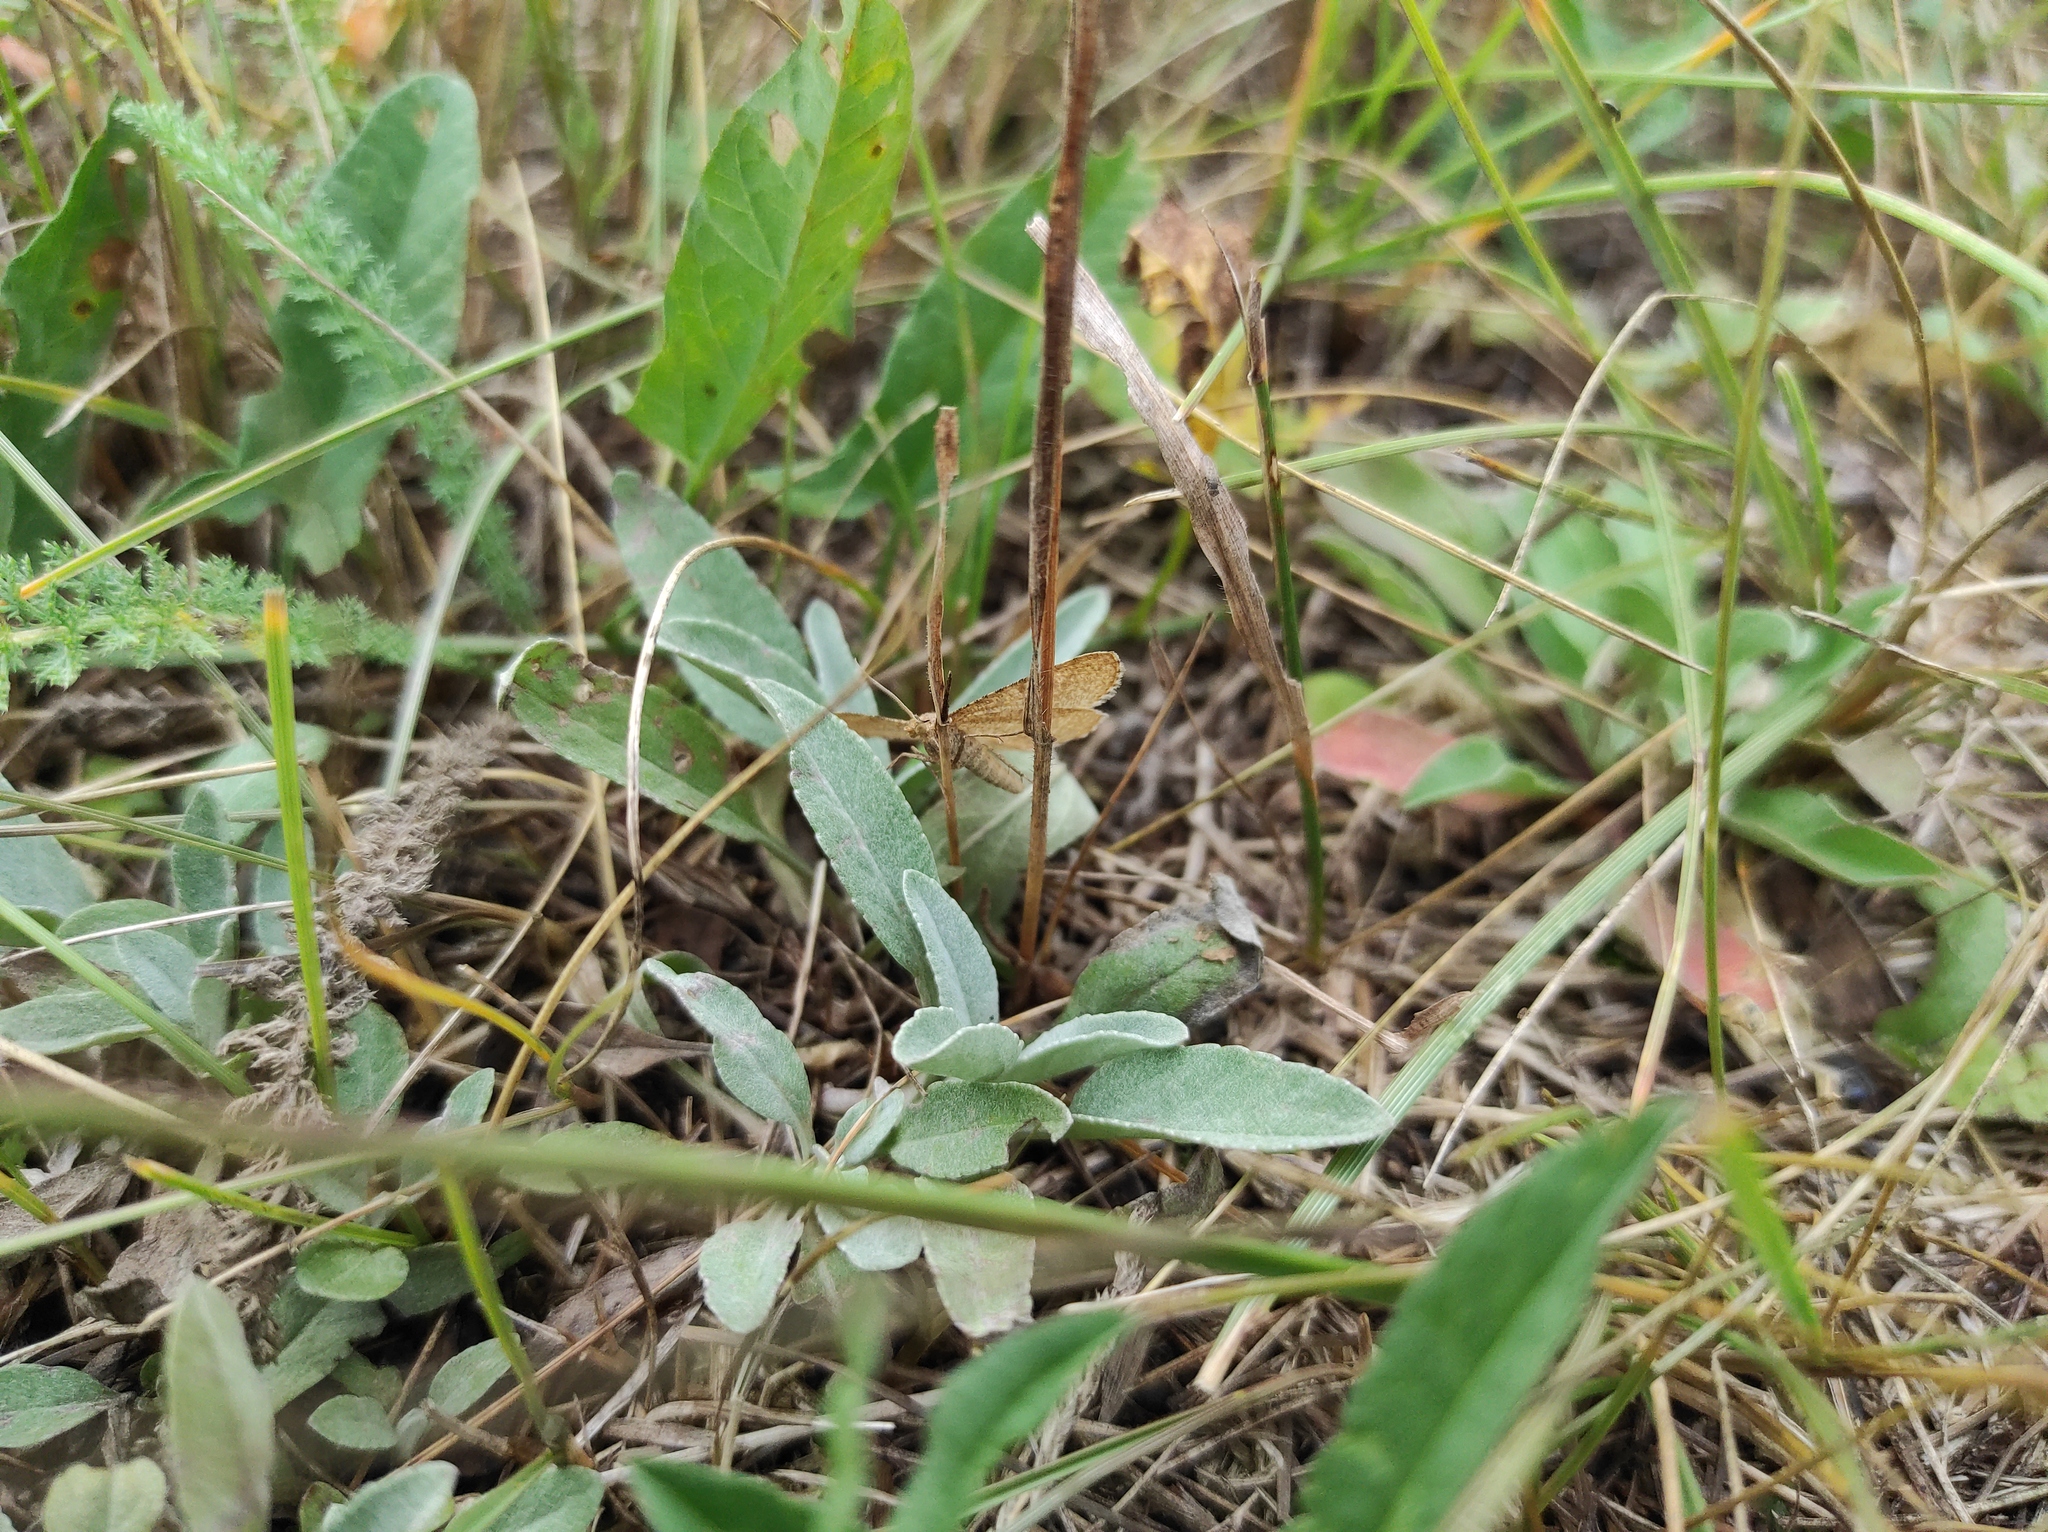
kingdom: Plantae
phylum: Tracheophyta
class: Magnoliopsida
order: Lamiales
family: Plantaginaceae
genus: Veronica
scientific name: Veronica incana
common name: Silver speedwell
